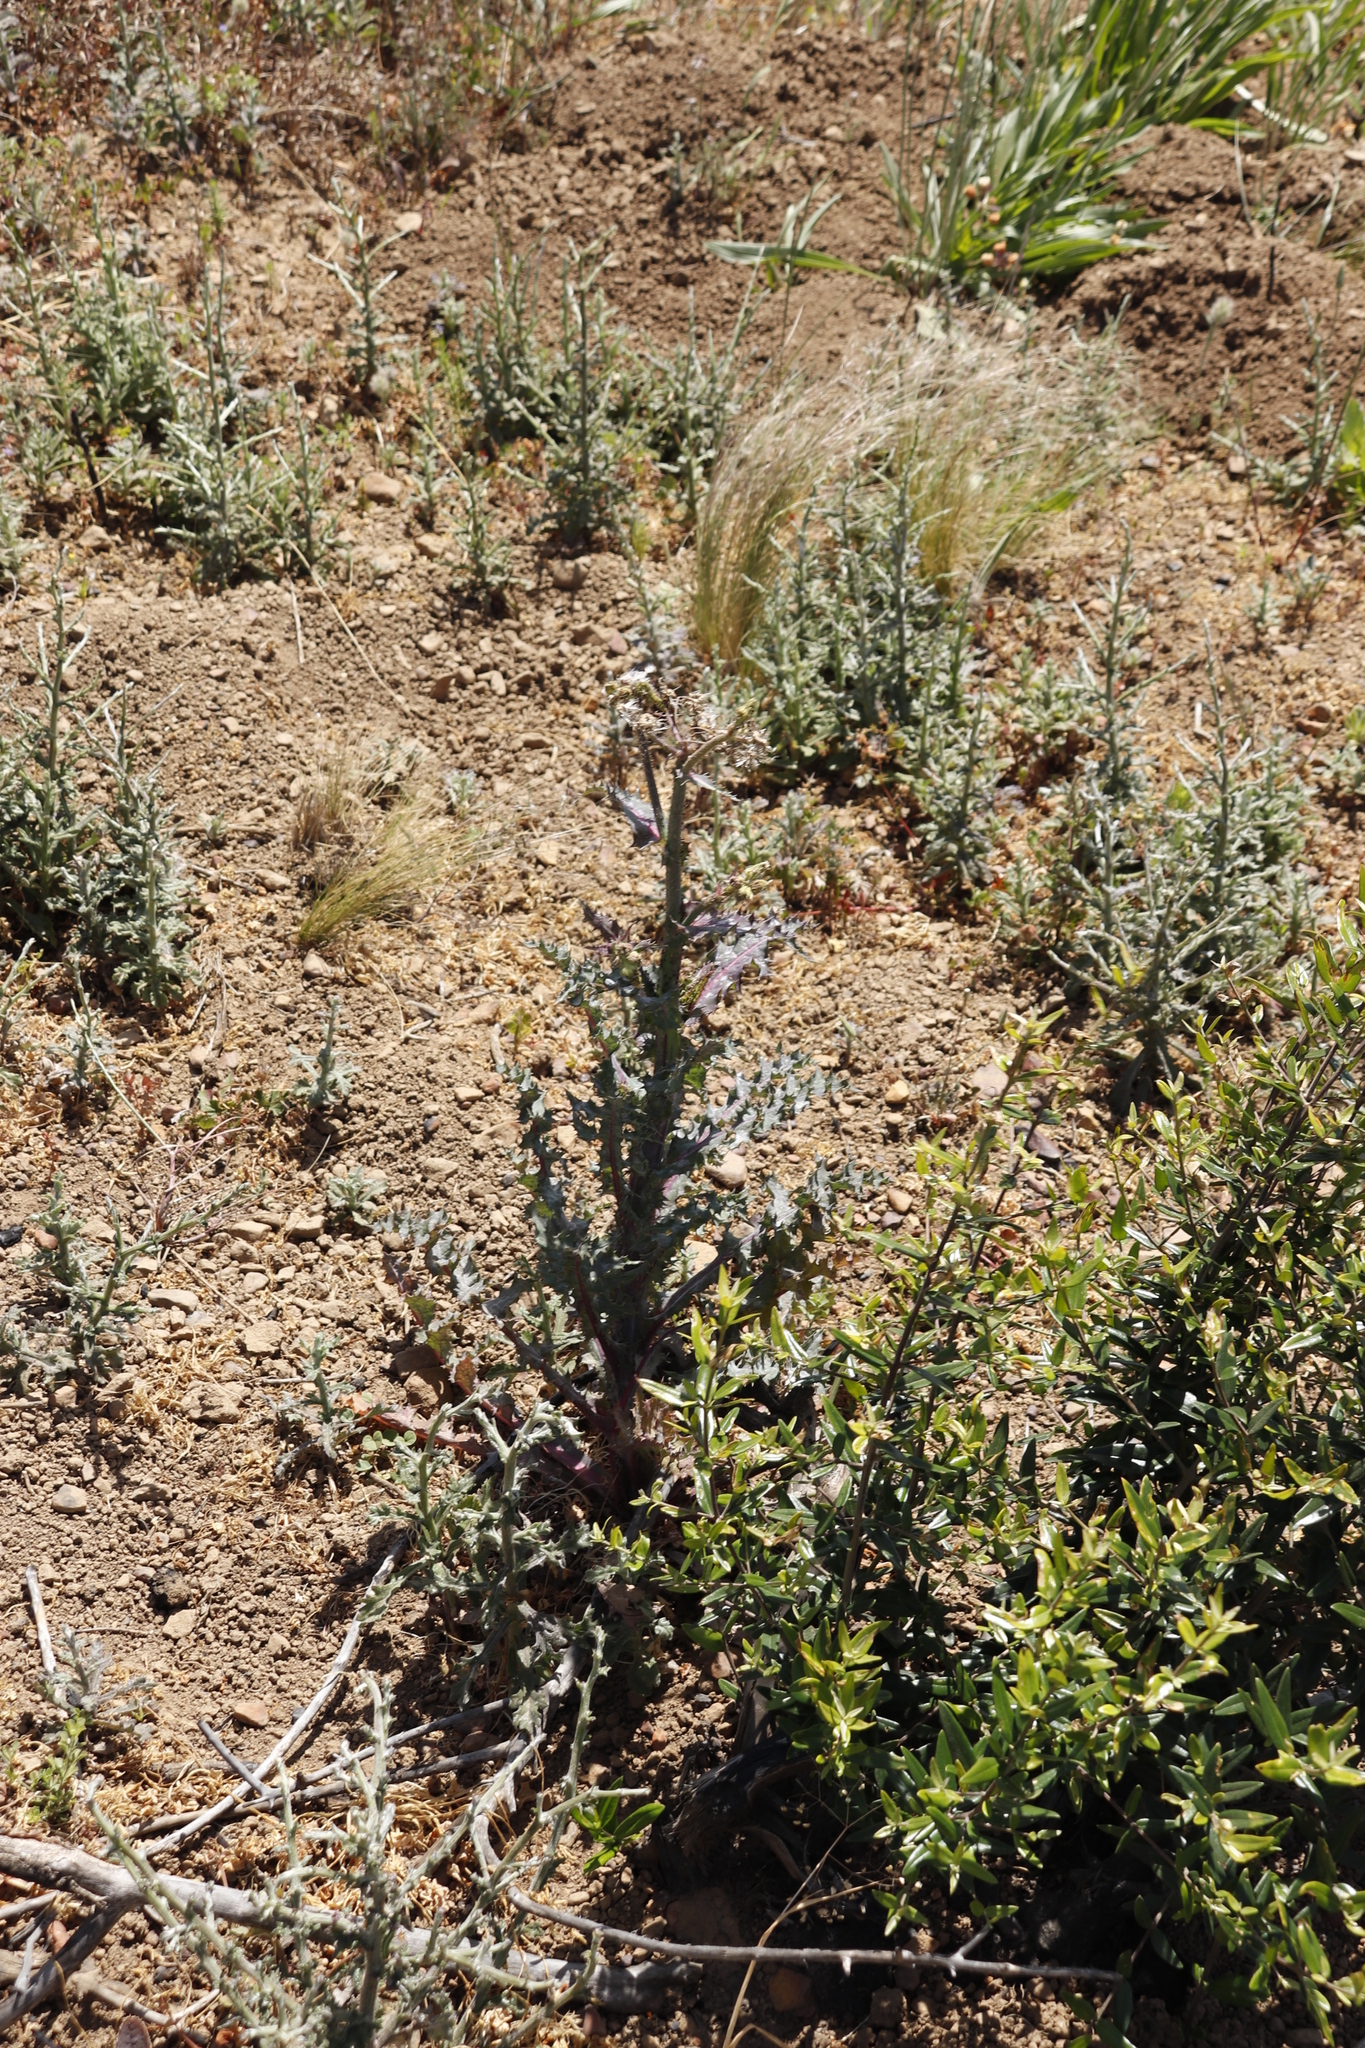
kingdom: Plantae
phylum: Tracheophyta
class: Magnoliopsida
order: Asterales
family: Asteraceae
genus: Sonchus
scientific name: Sonchus asper
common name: Prickly sow-thistle
